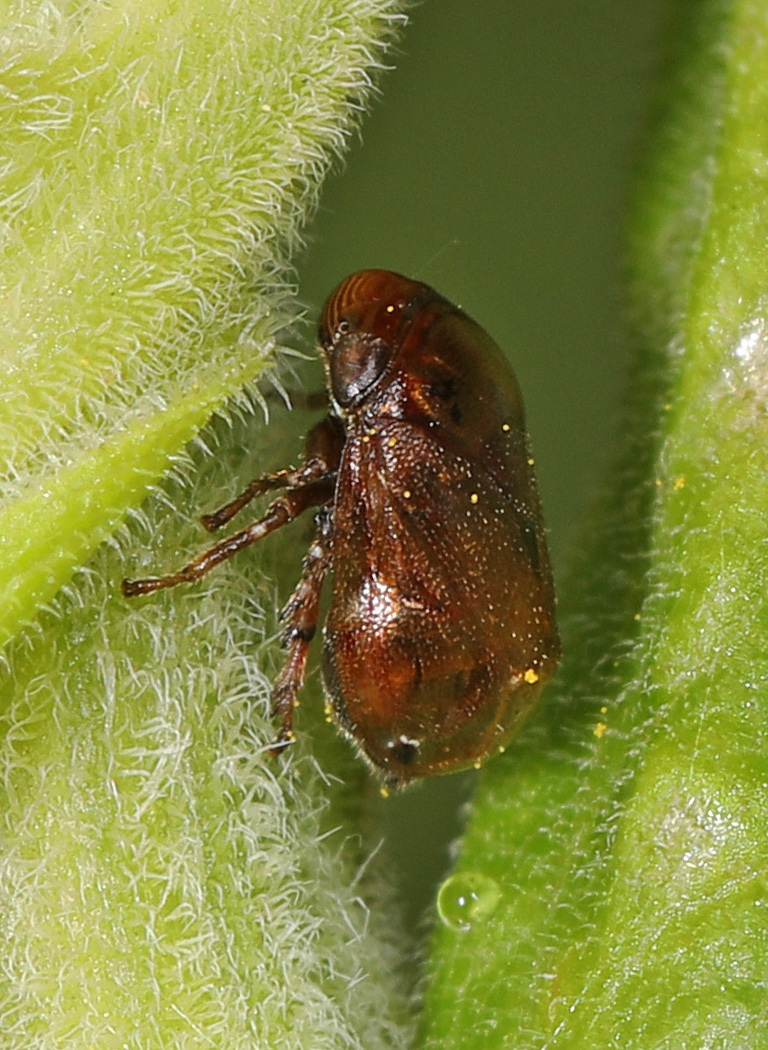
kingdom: Animalia
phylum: Arthropoda
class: Insecta
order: Hemiptera
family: Clastopteridae
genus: Clastoptera
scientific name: Clastoptera xanthocephala
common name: Sunflower spittlebug
